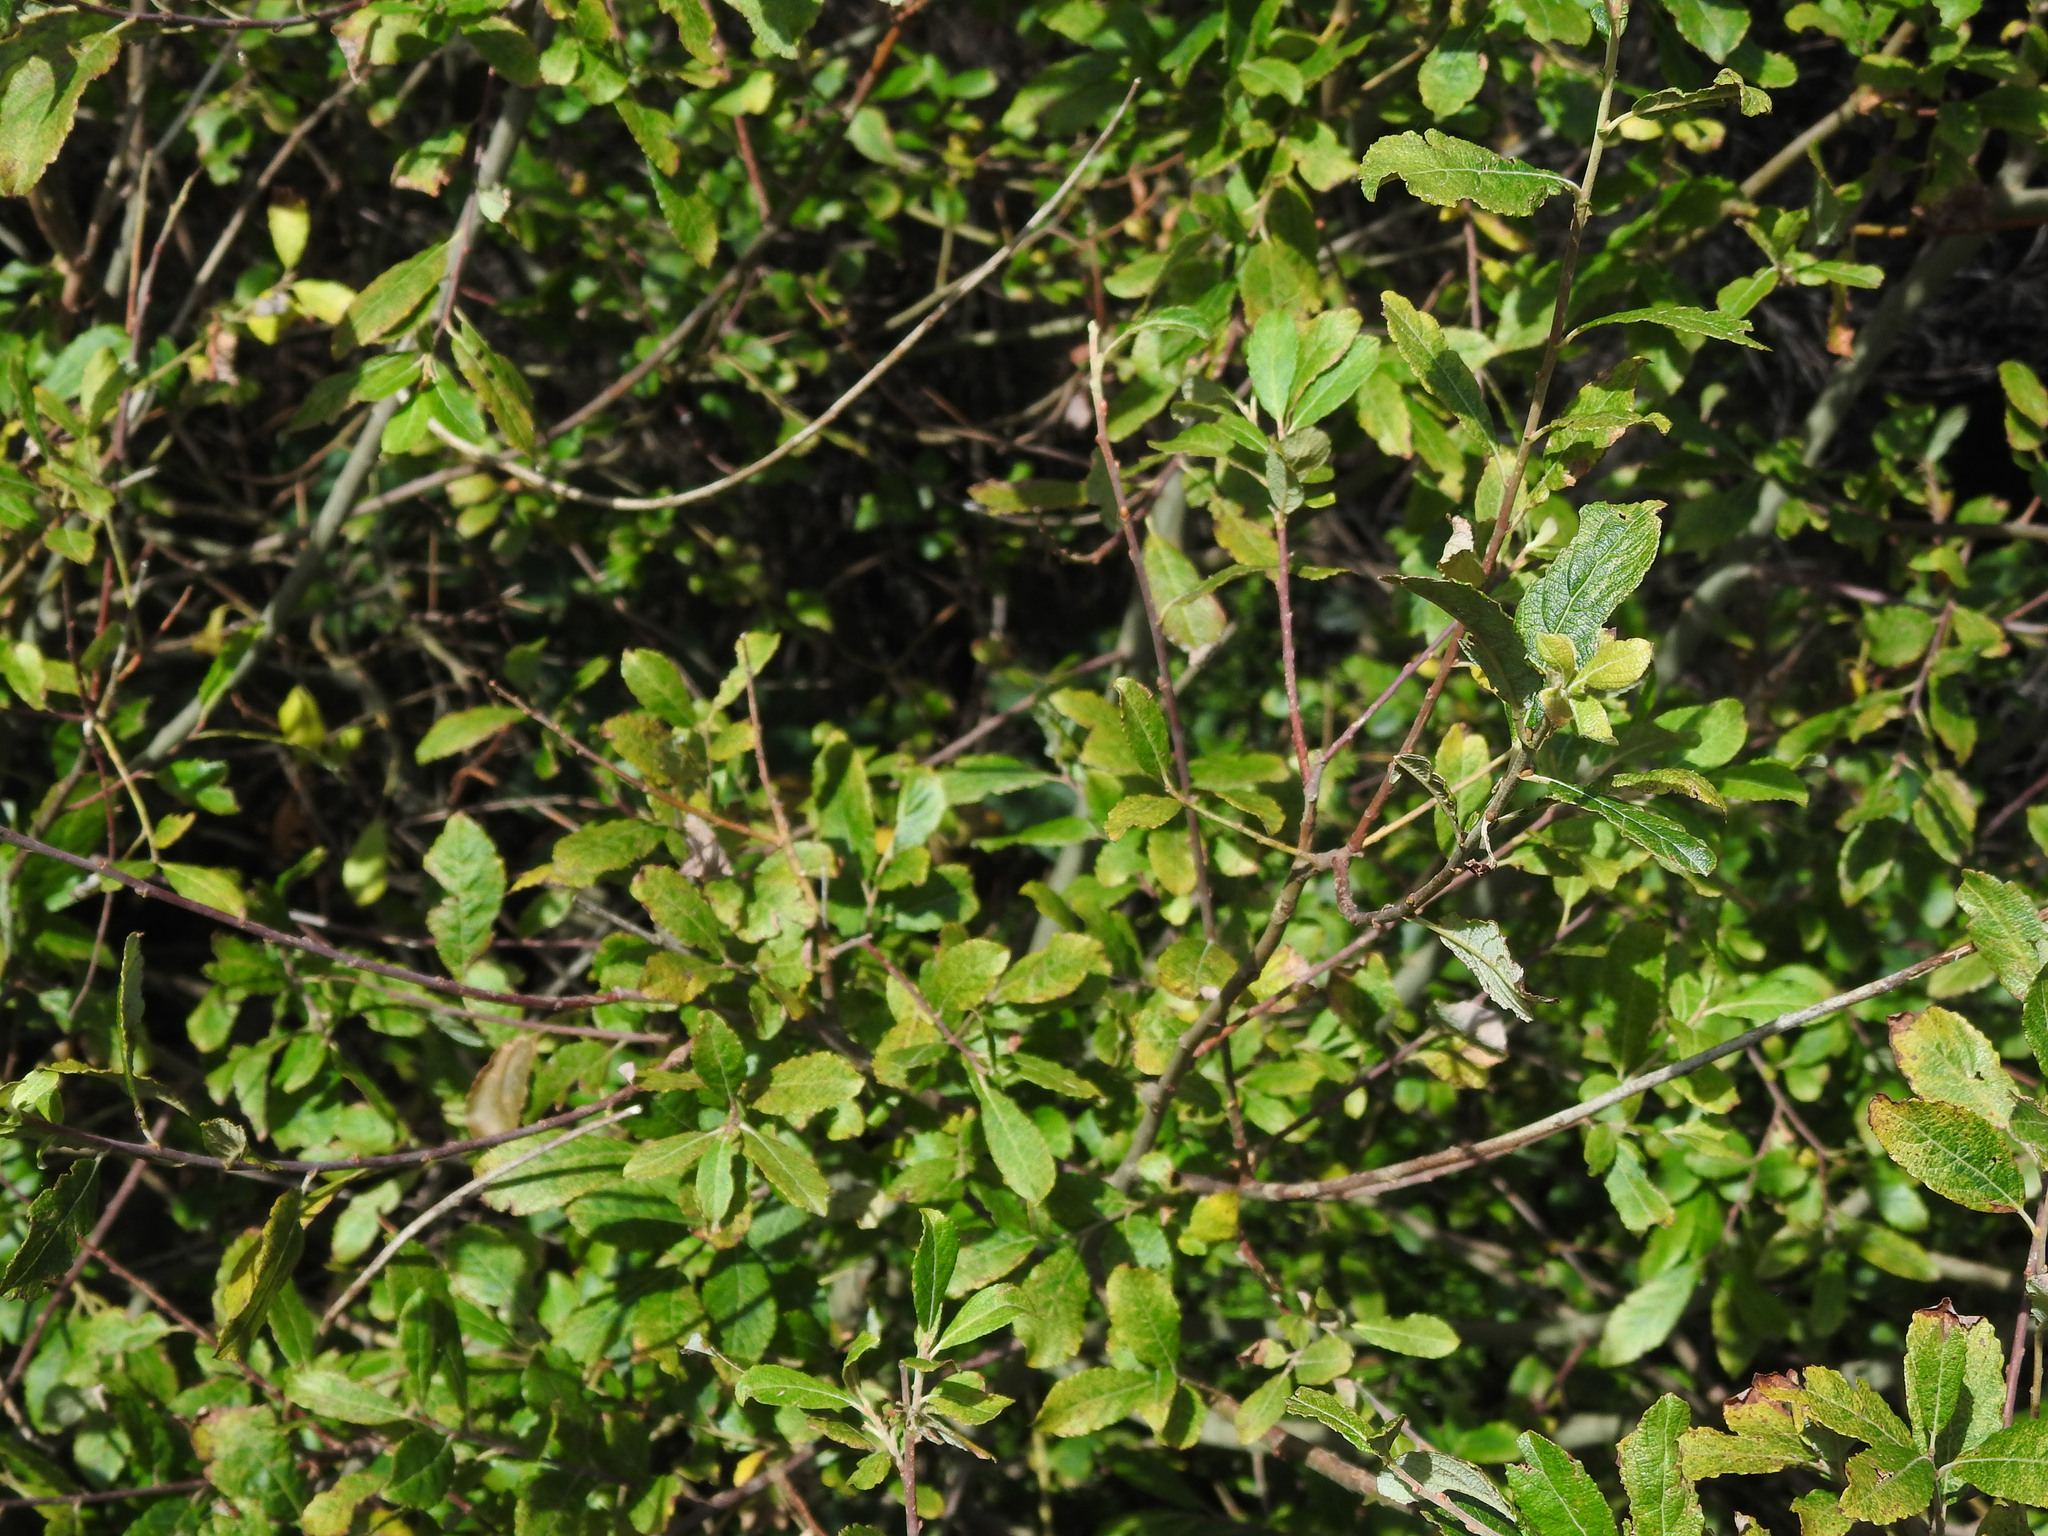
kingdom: Plantae
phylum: Tracheophyta
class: Magnoliopsida
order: Malpighiales
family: Salicaceae
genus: Salix
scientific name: Salix cinerea
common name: Common sallow
